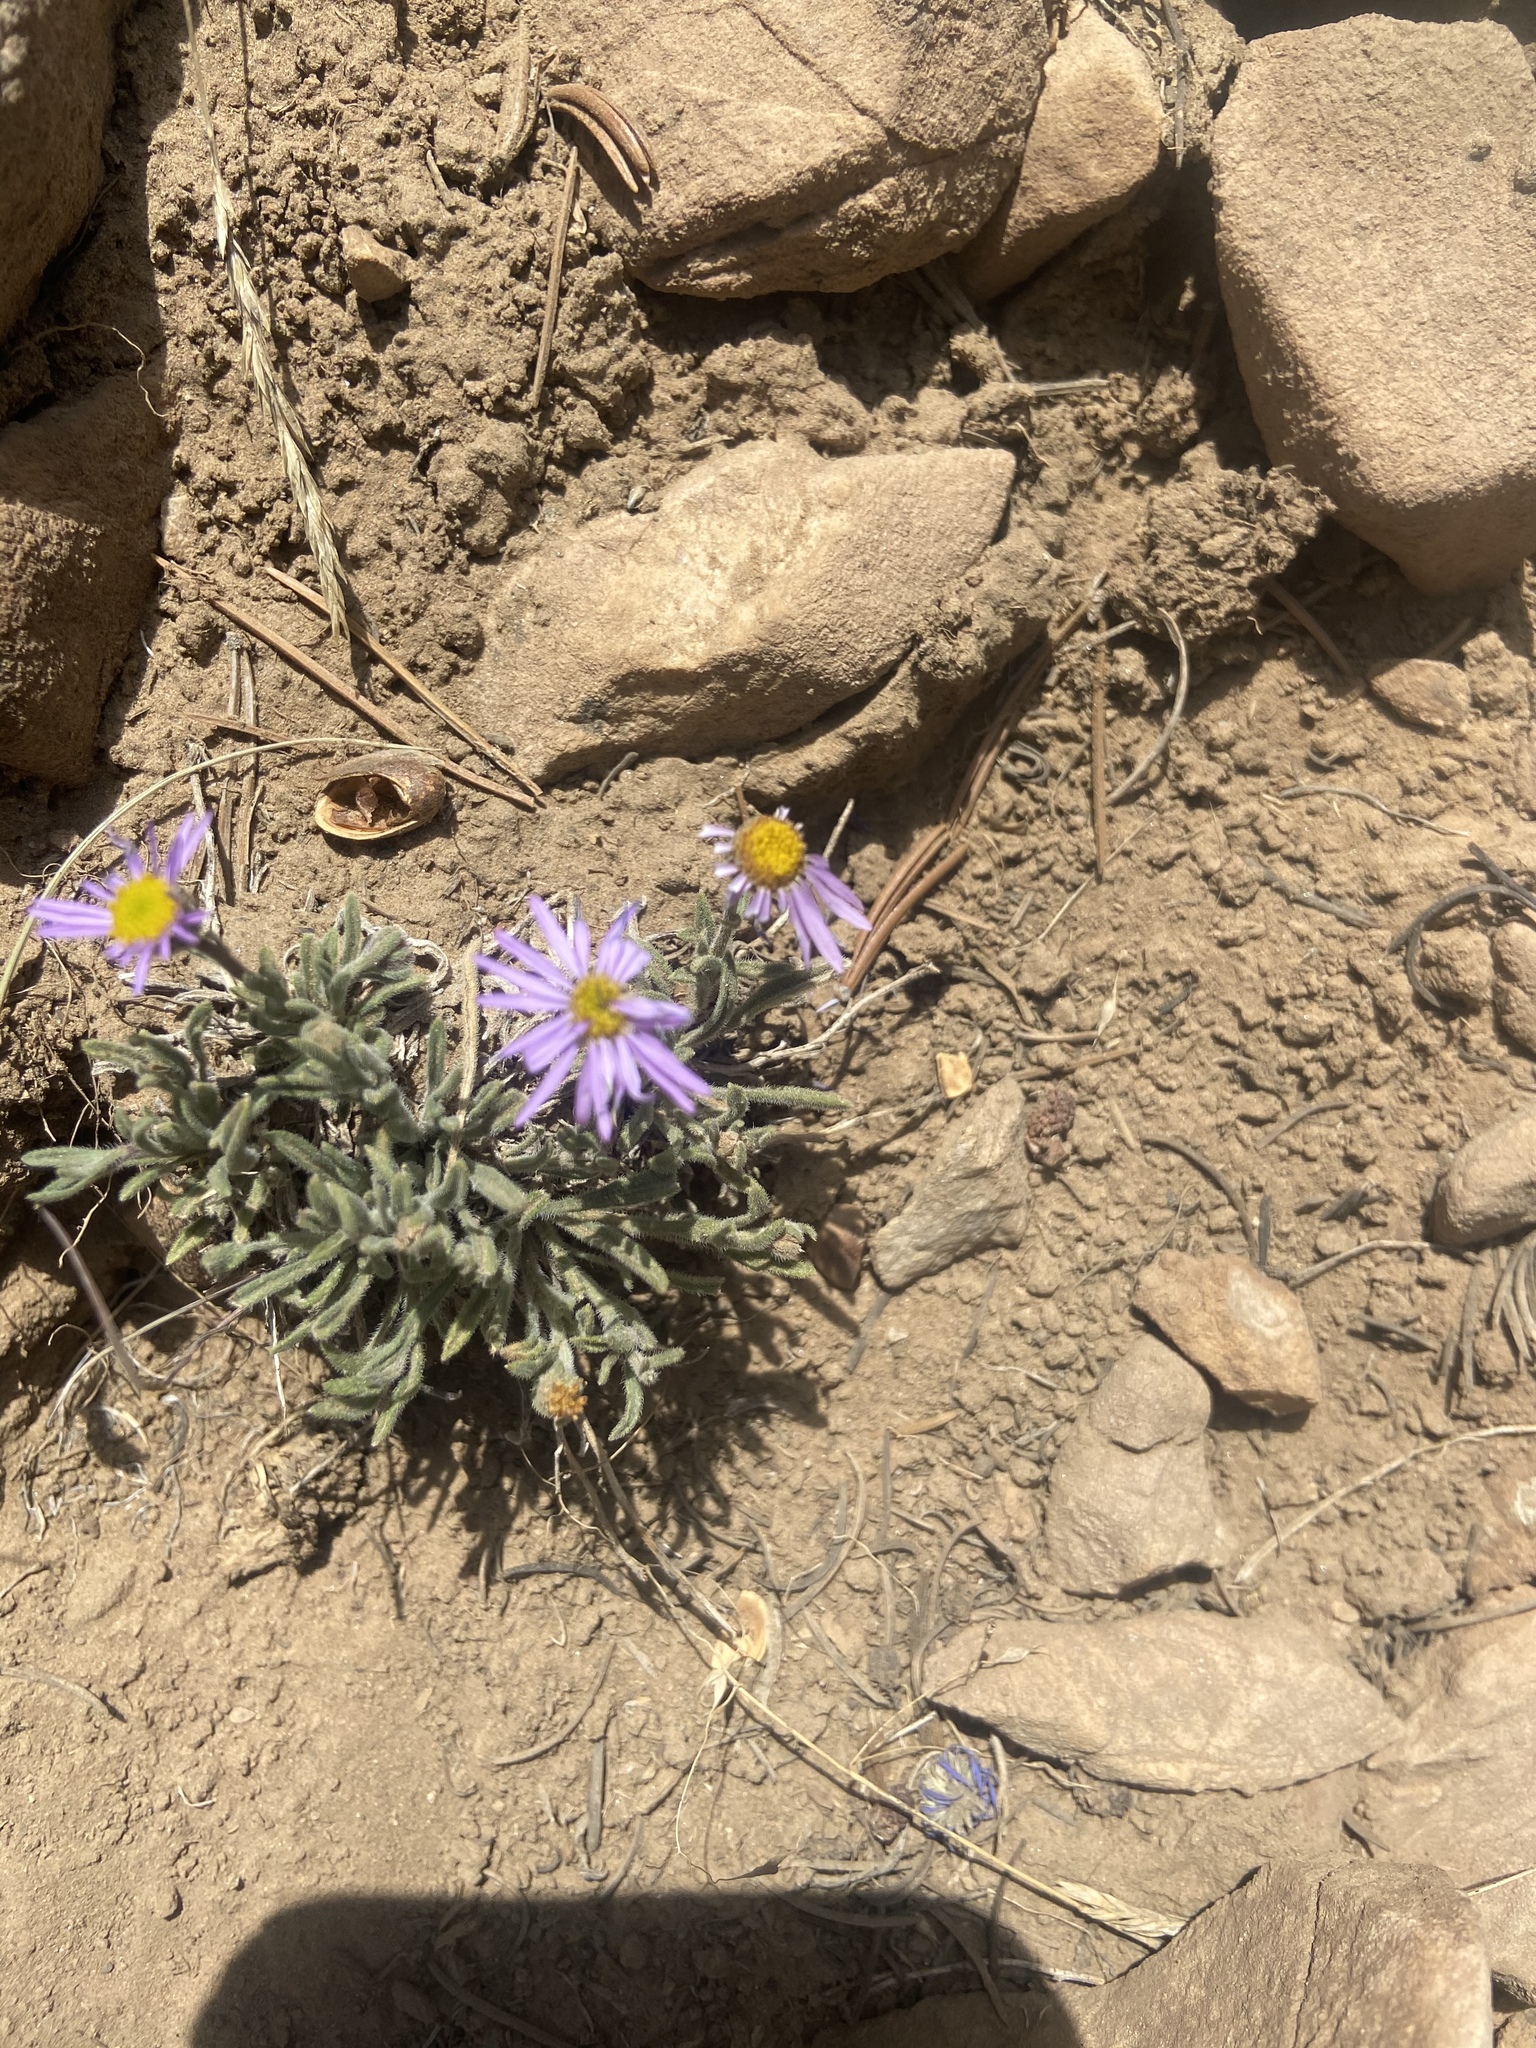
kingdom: Plantae
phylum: Tracheophyta
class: Magnoliopsida
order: Asterales
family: Asteraceae
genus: Erigeron
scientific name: Erigeron clokeyi
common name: Clokey's fleabane
